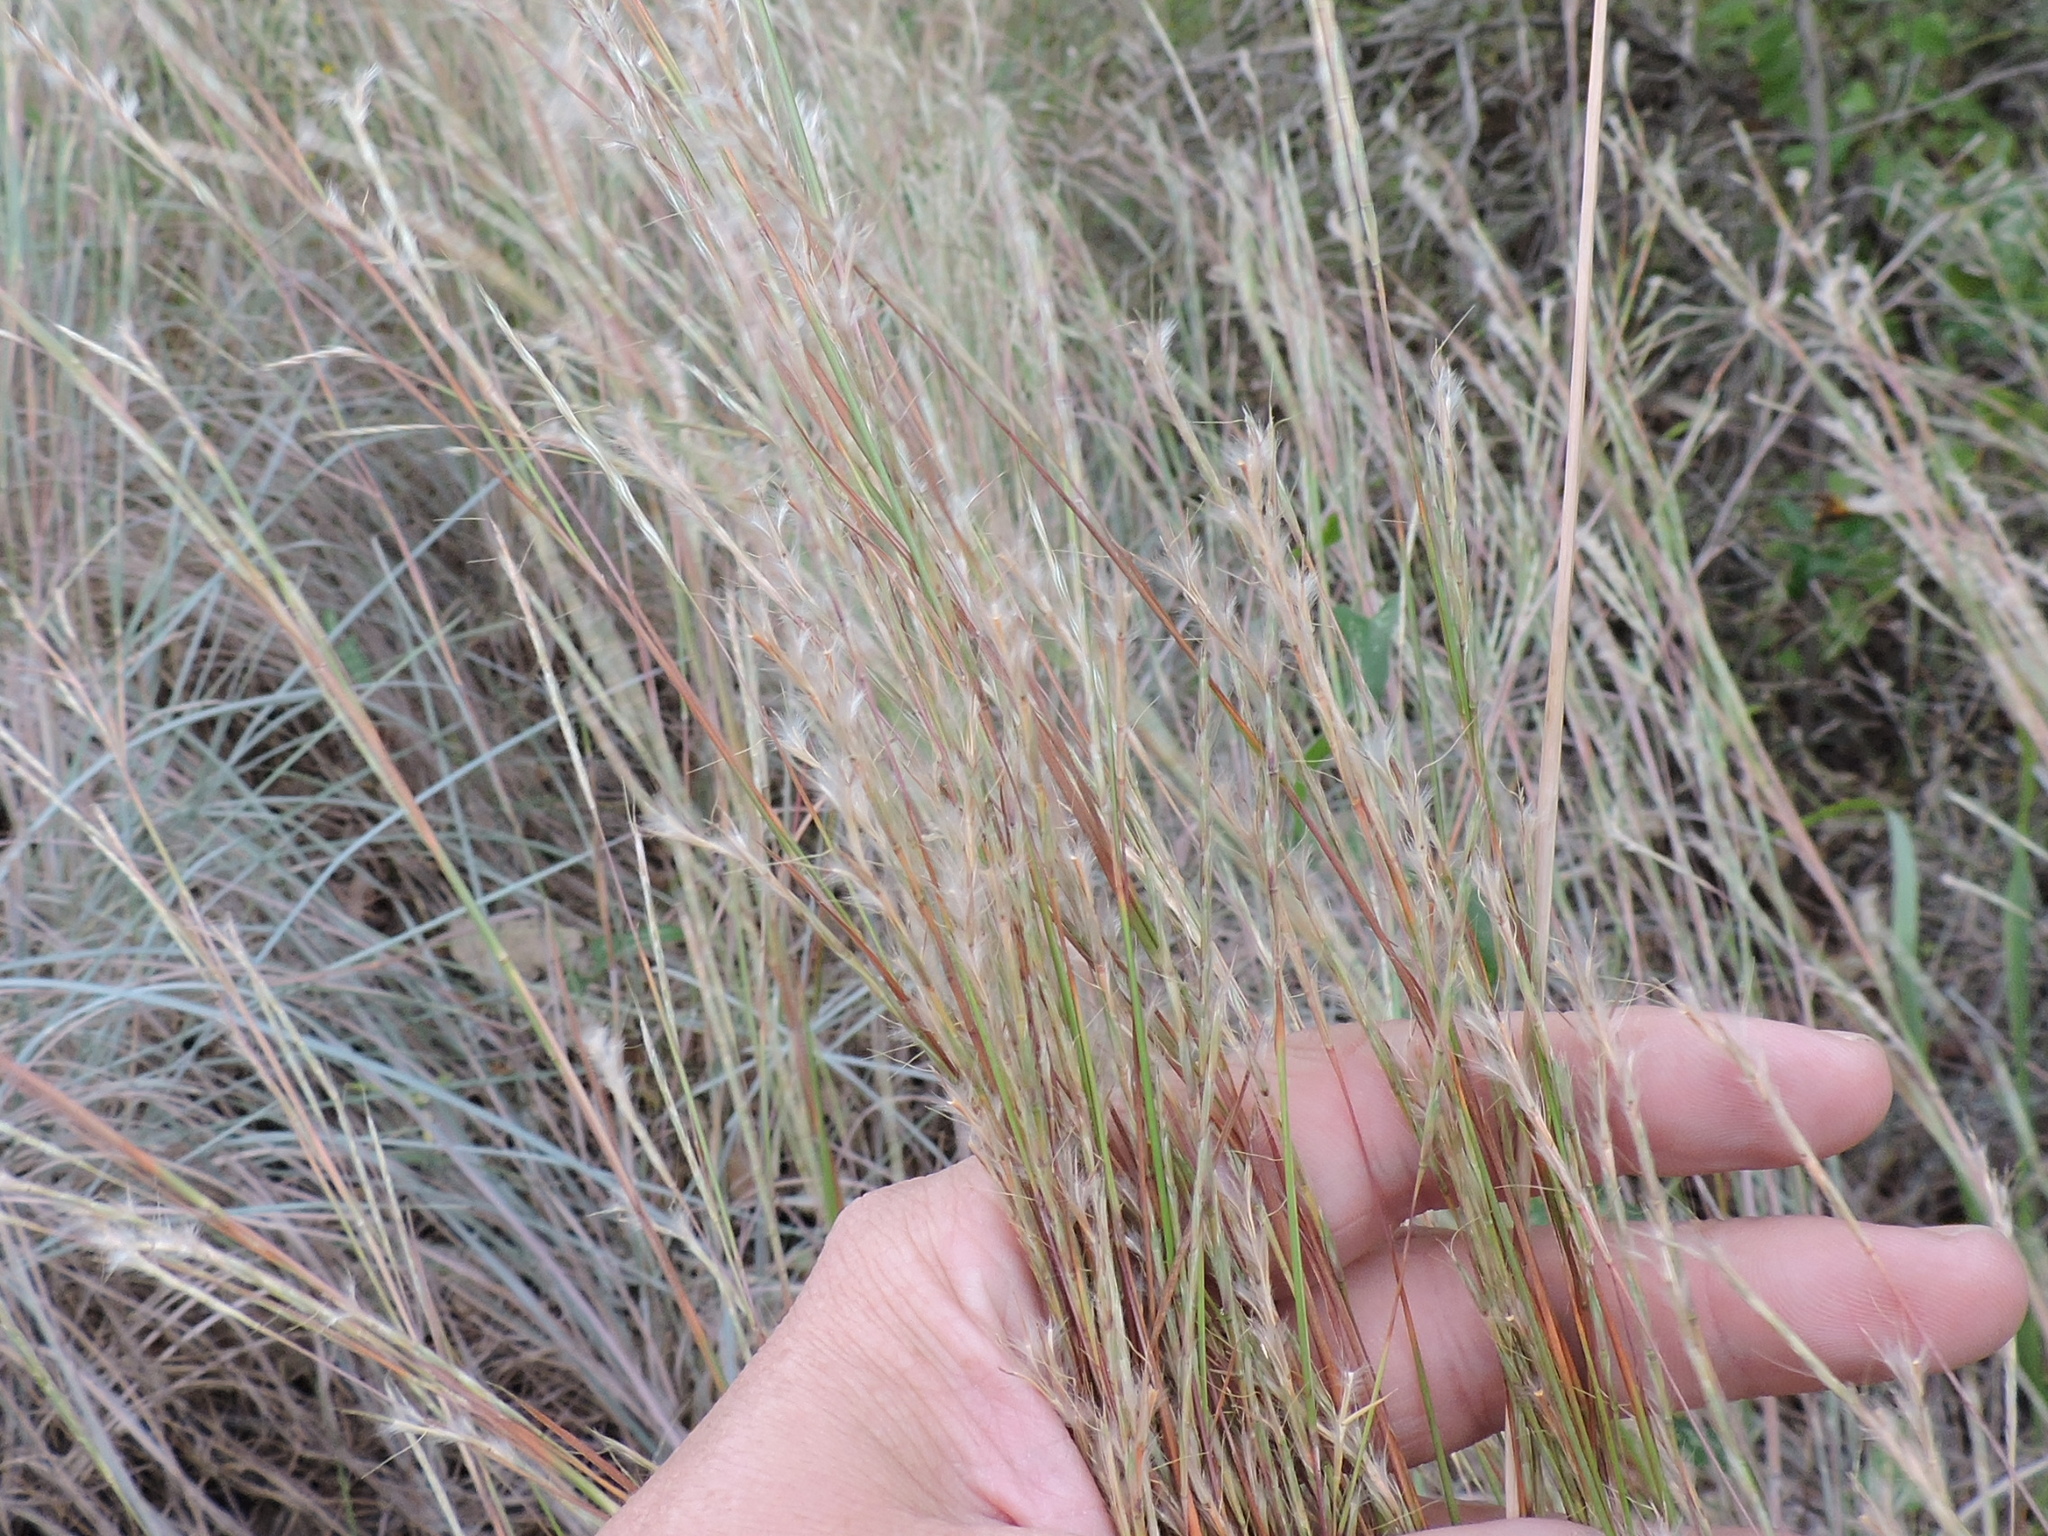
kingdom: Plantae
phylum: Tracheophyta
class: Liliopsida
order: Poales
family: Poaceae
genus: Schizachyrium
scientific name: Schizachyrium scoparium
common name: Little bluestem
